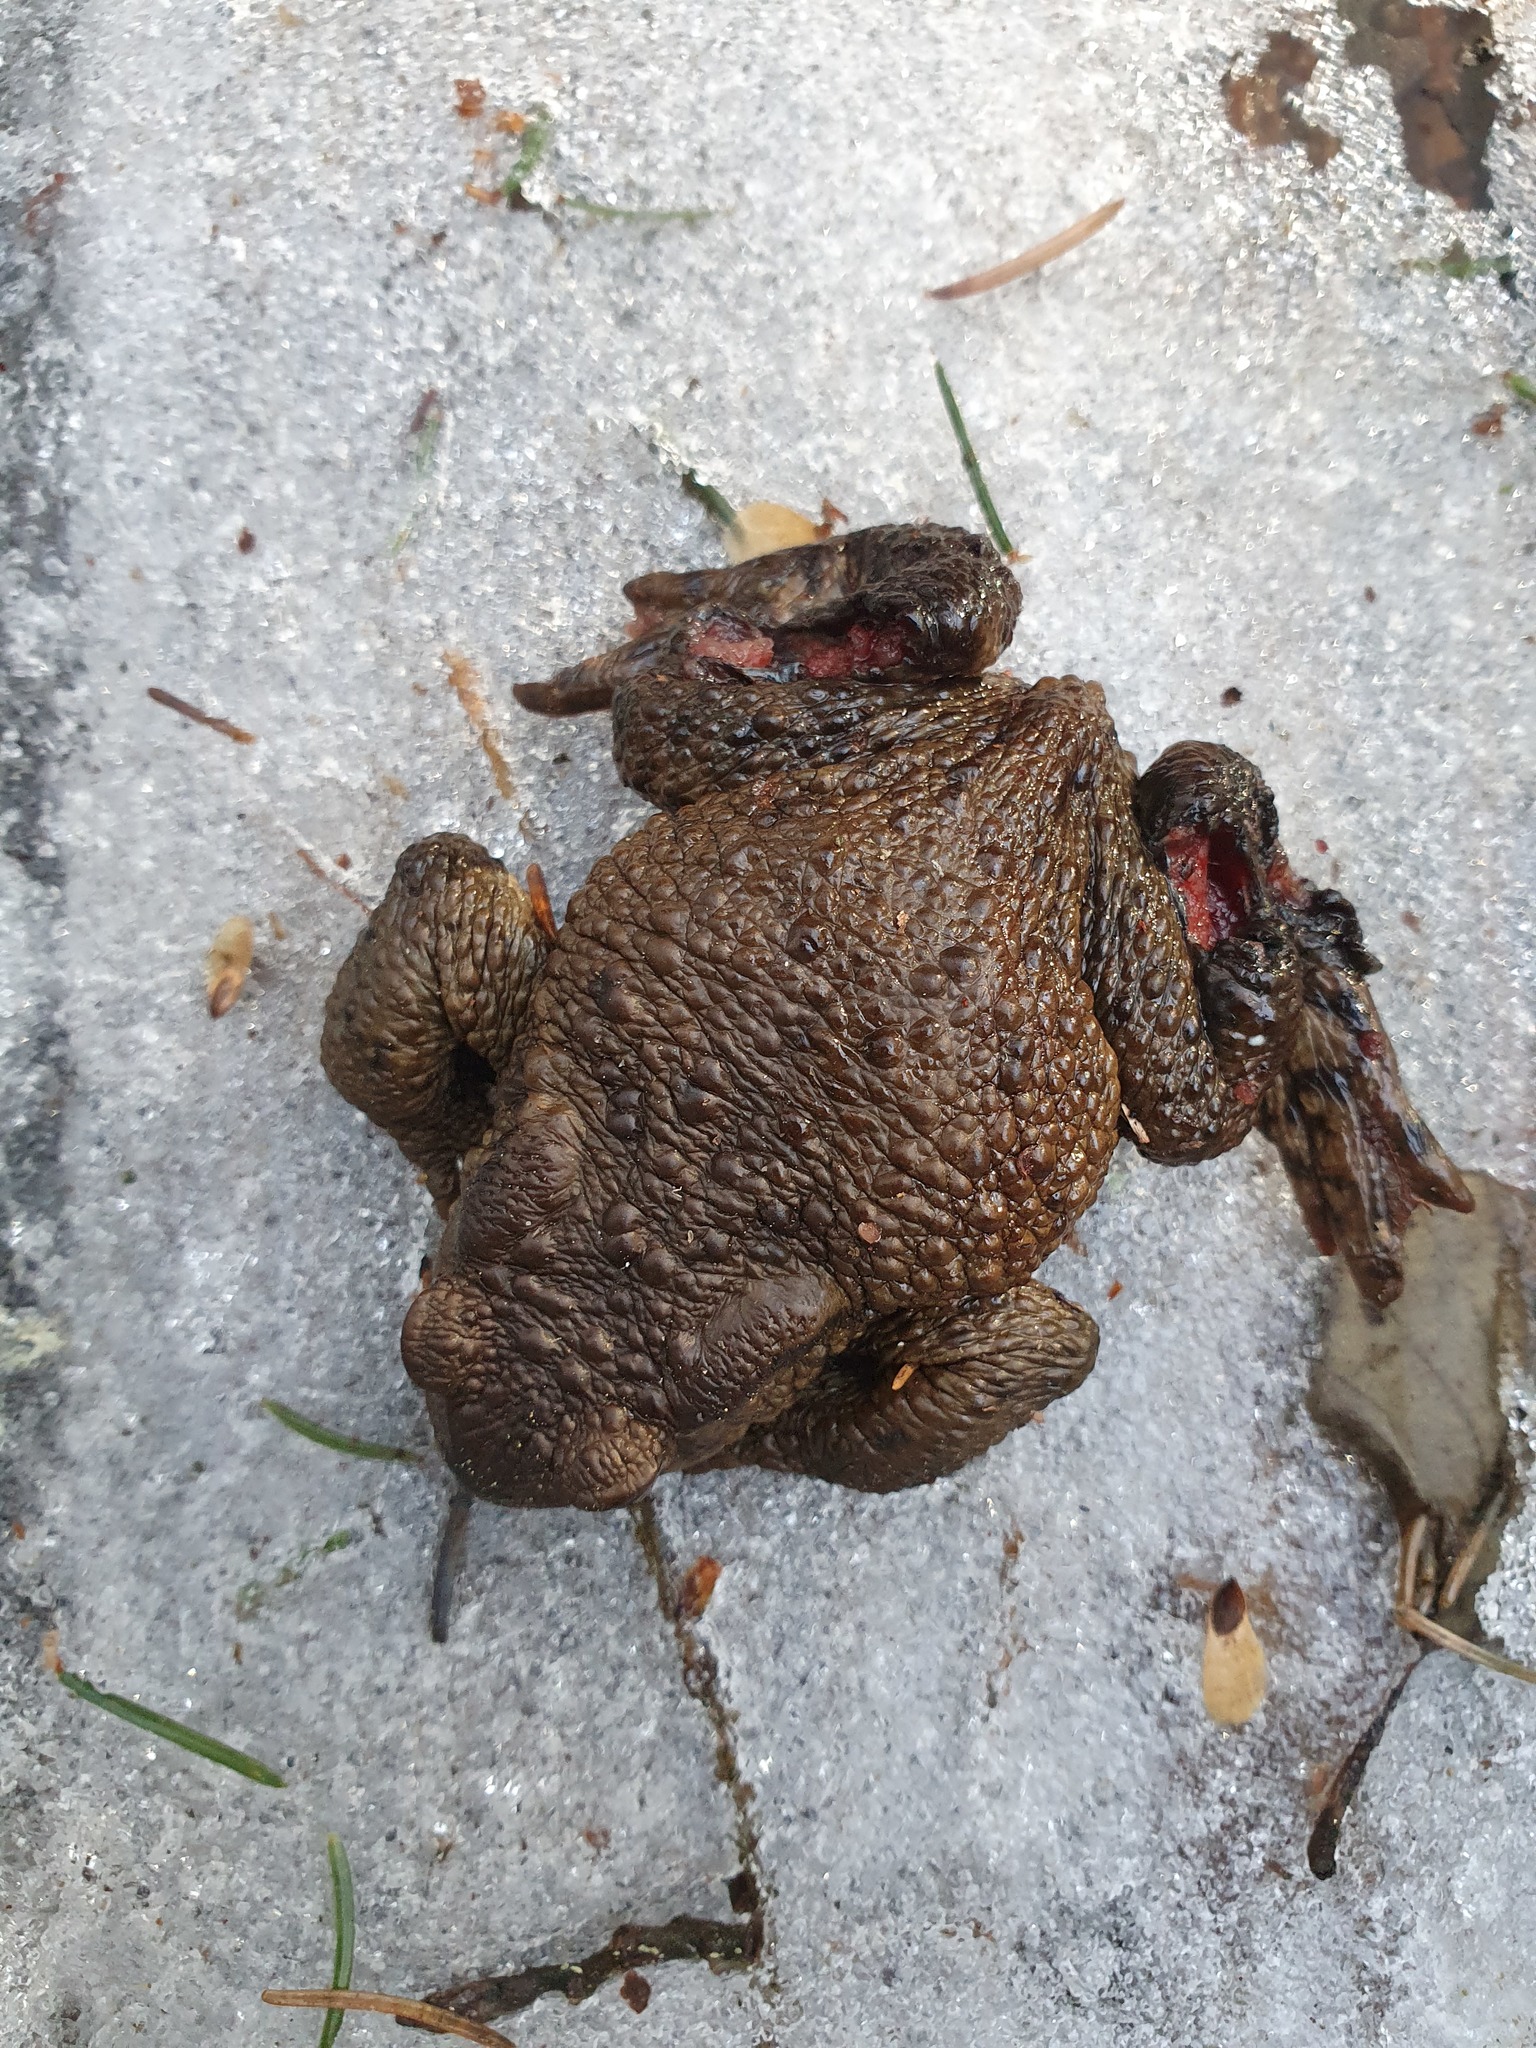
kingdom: Animalia
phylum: Chordata
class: Amphibia
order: Anura
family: Bufonidae
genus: Bufo
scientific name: Bufo bufo
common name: Common toad
